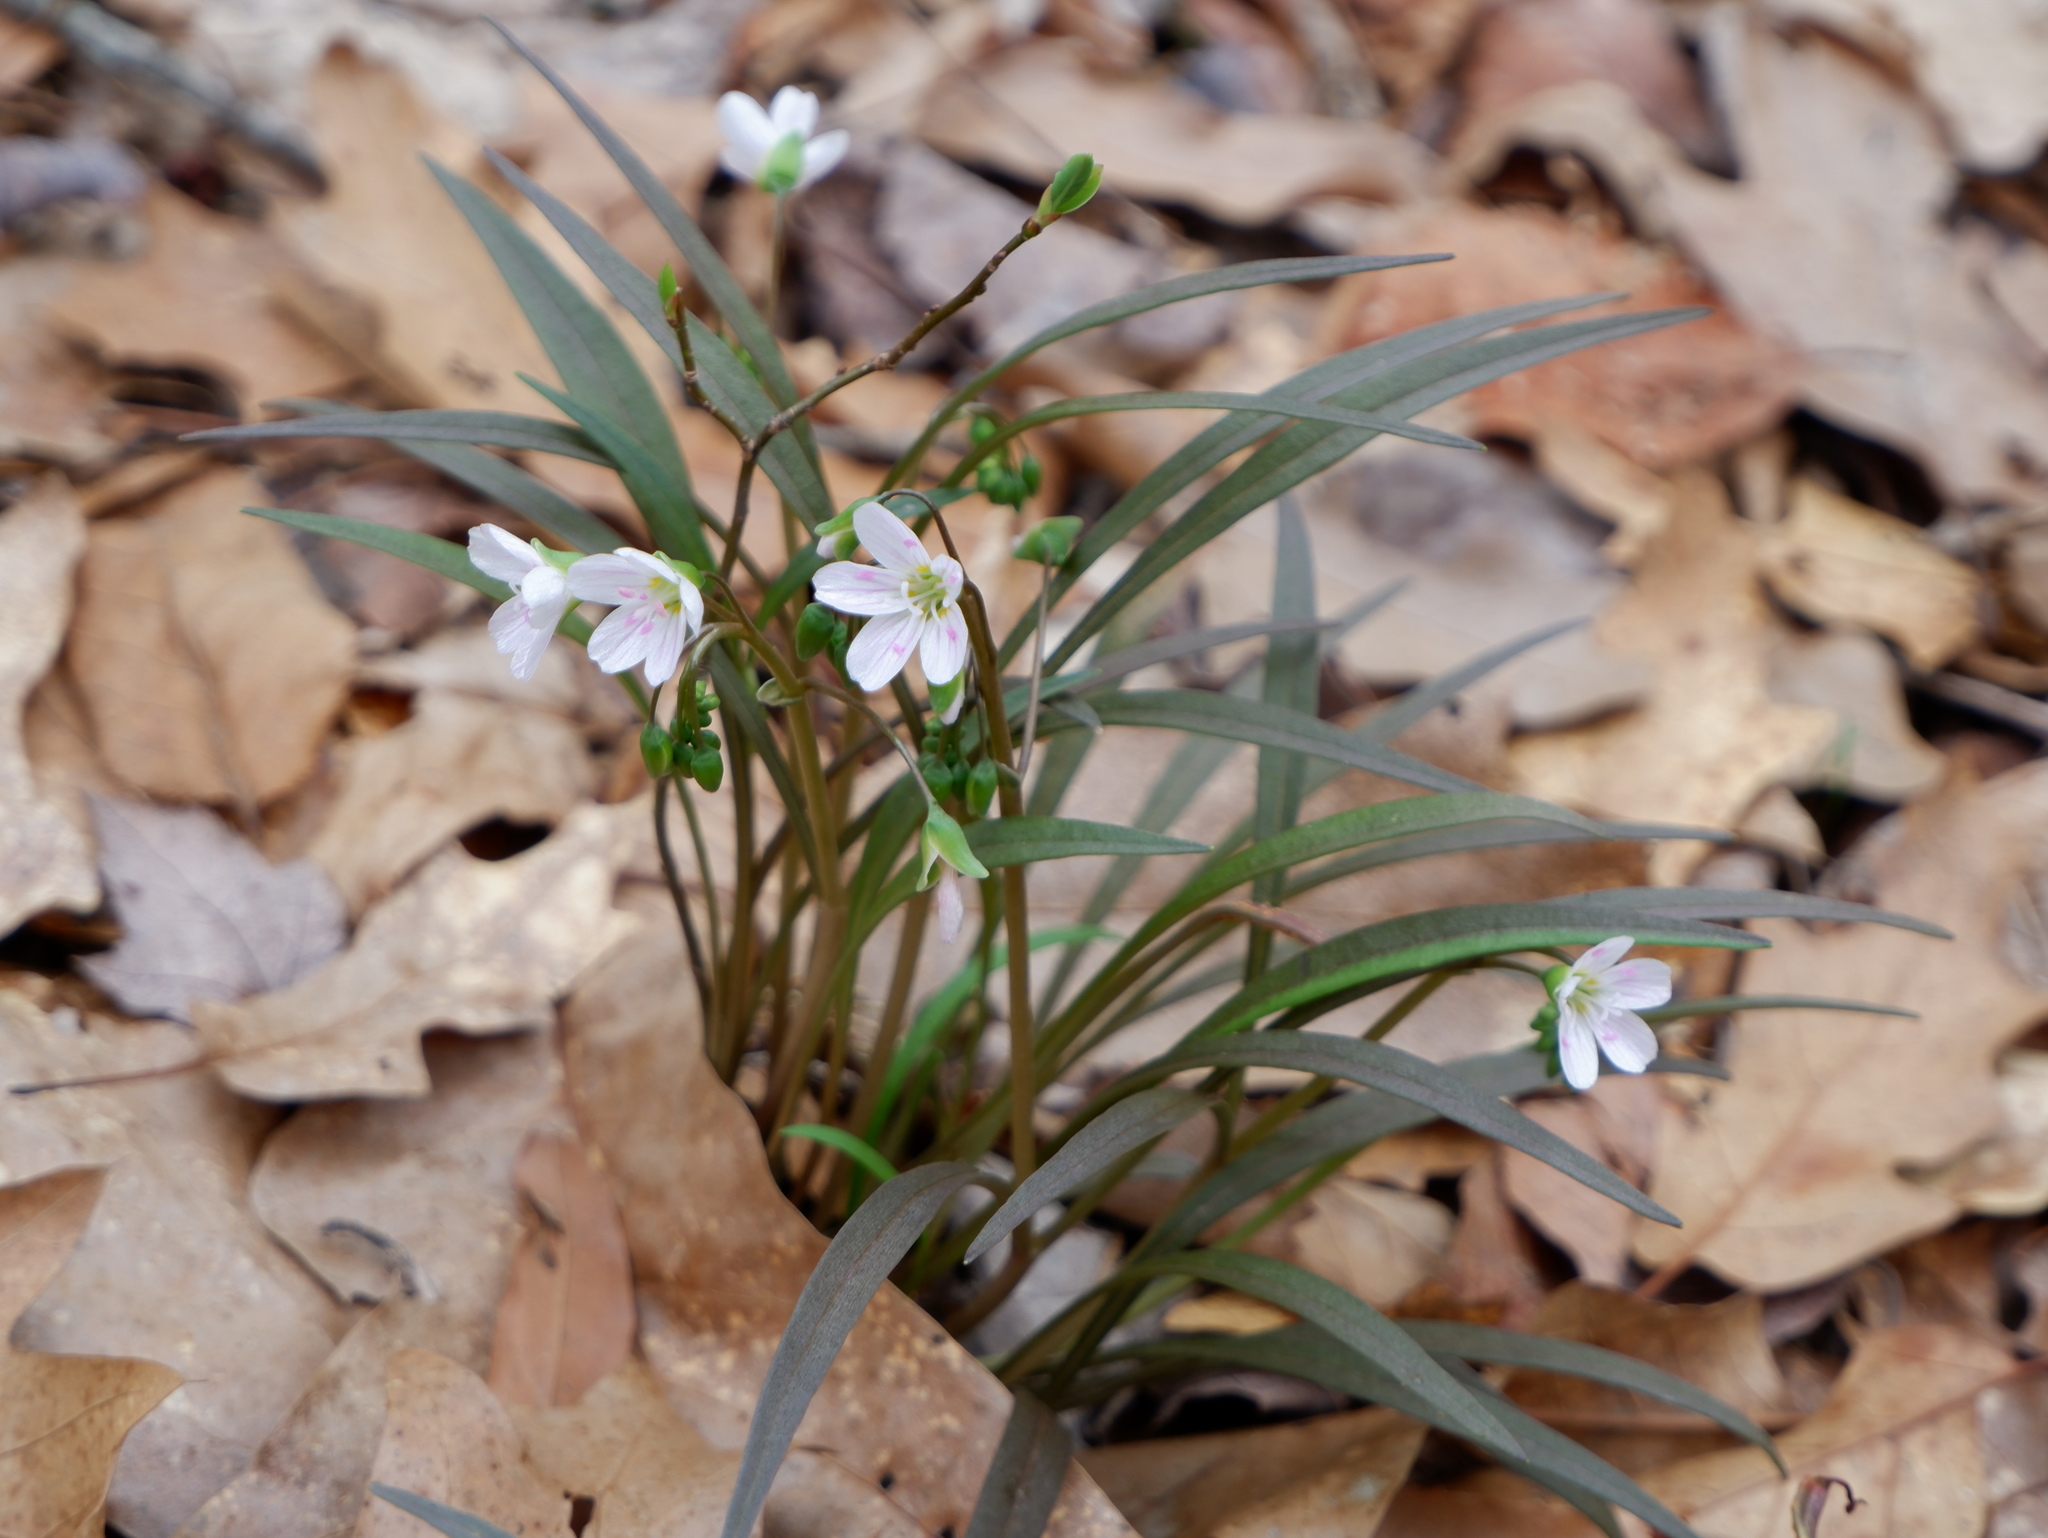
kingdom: Plantae
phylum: Tracheophyta
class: Magnoliopsida
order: Caryophyllales
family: Montiaceae
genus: Claytonia
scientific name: Claytonia virginica
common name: Virginia springbeauty
